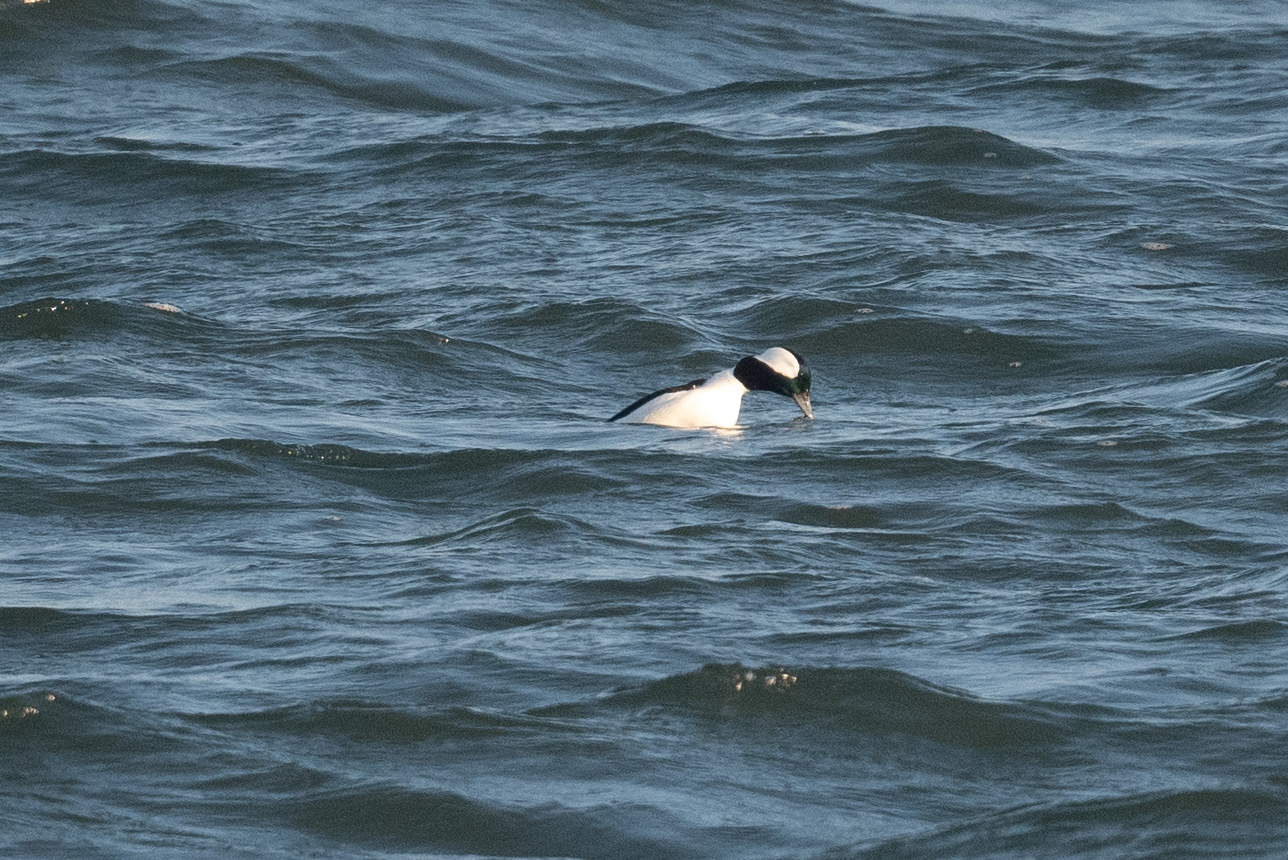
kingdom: Animalia
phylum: Chordata
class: Aves
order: Anseriformes
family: Anatidae
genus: Bucephala
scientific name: Bucephala albeola
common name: Bufflehead
